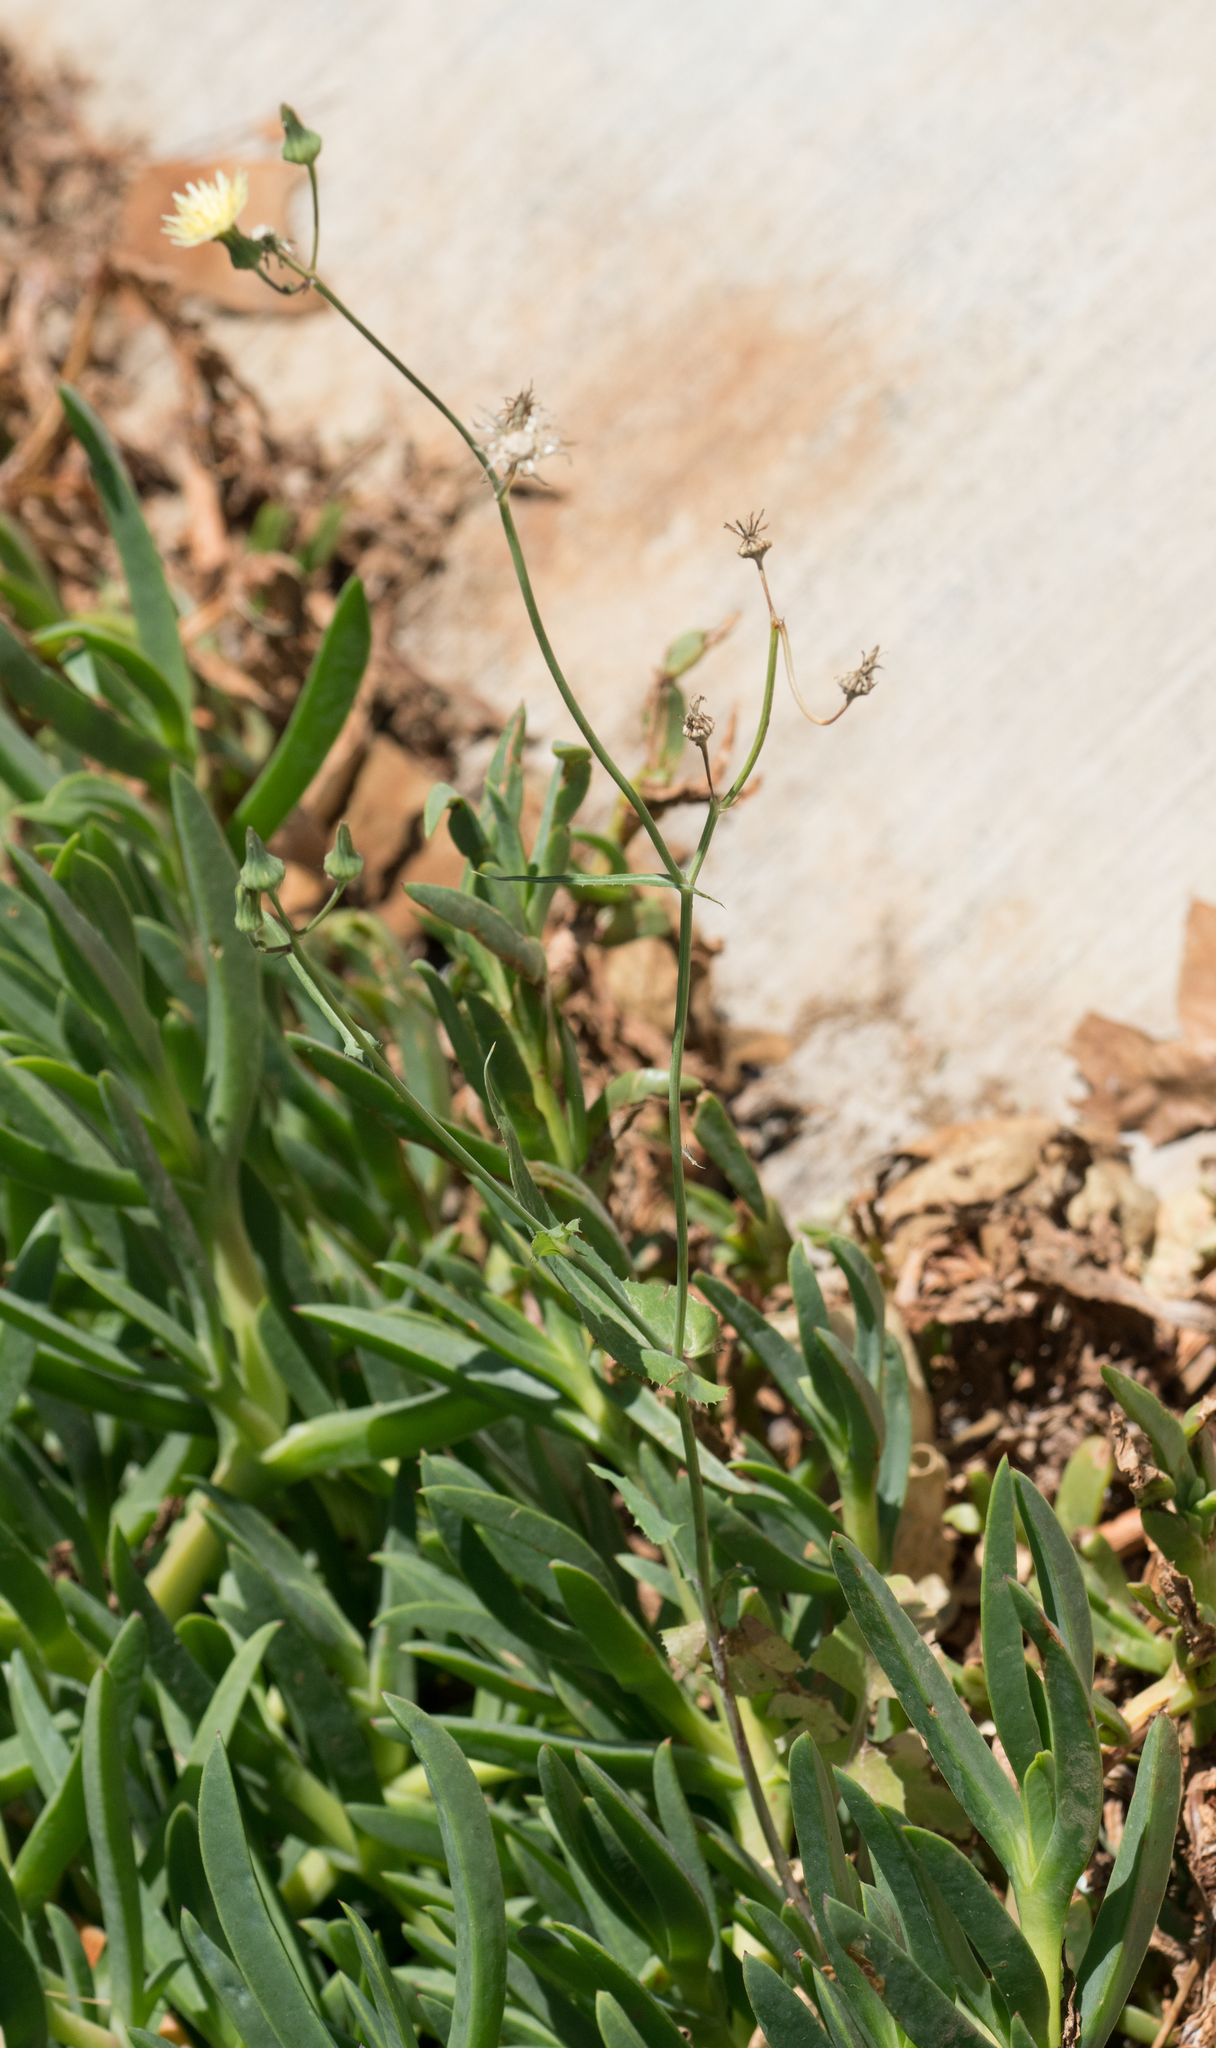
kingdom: Plantae
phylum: Tracheophyta
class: Magnoliopsida
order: Asterales
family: Asteraceae
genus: Sonchus
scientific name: Sonchus oleraceus
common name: Common sowthistle
